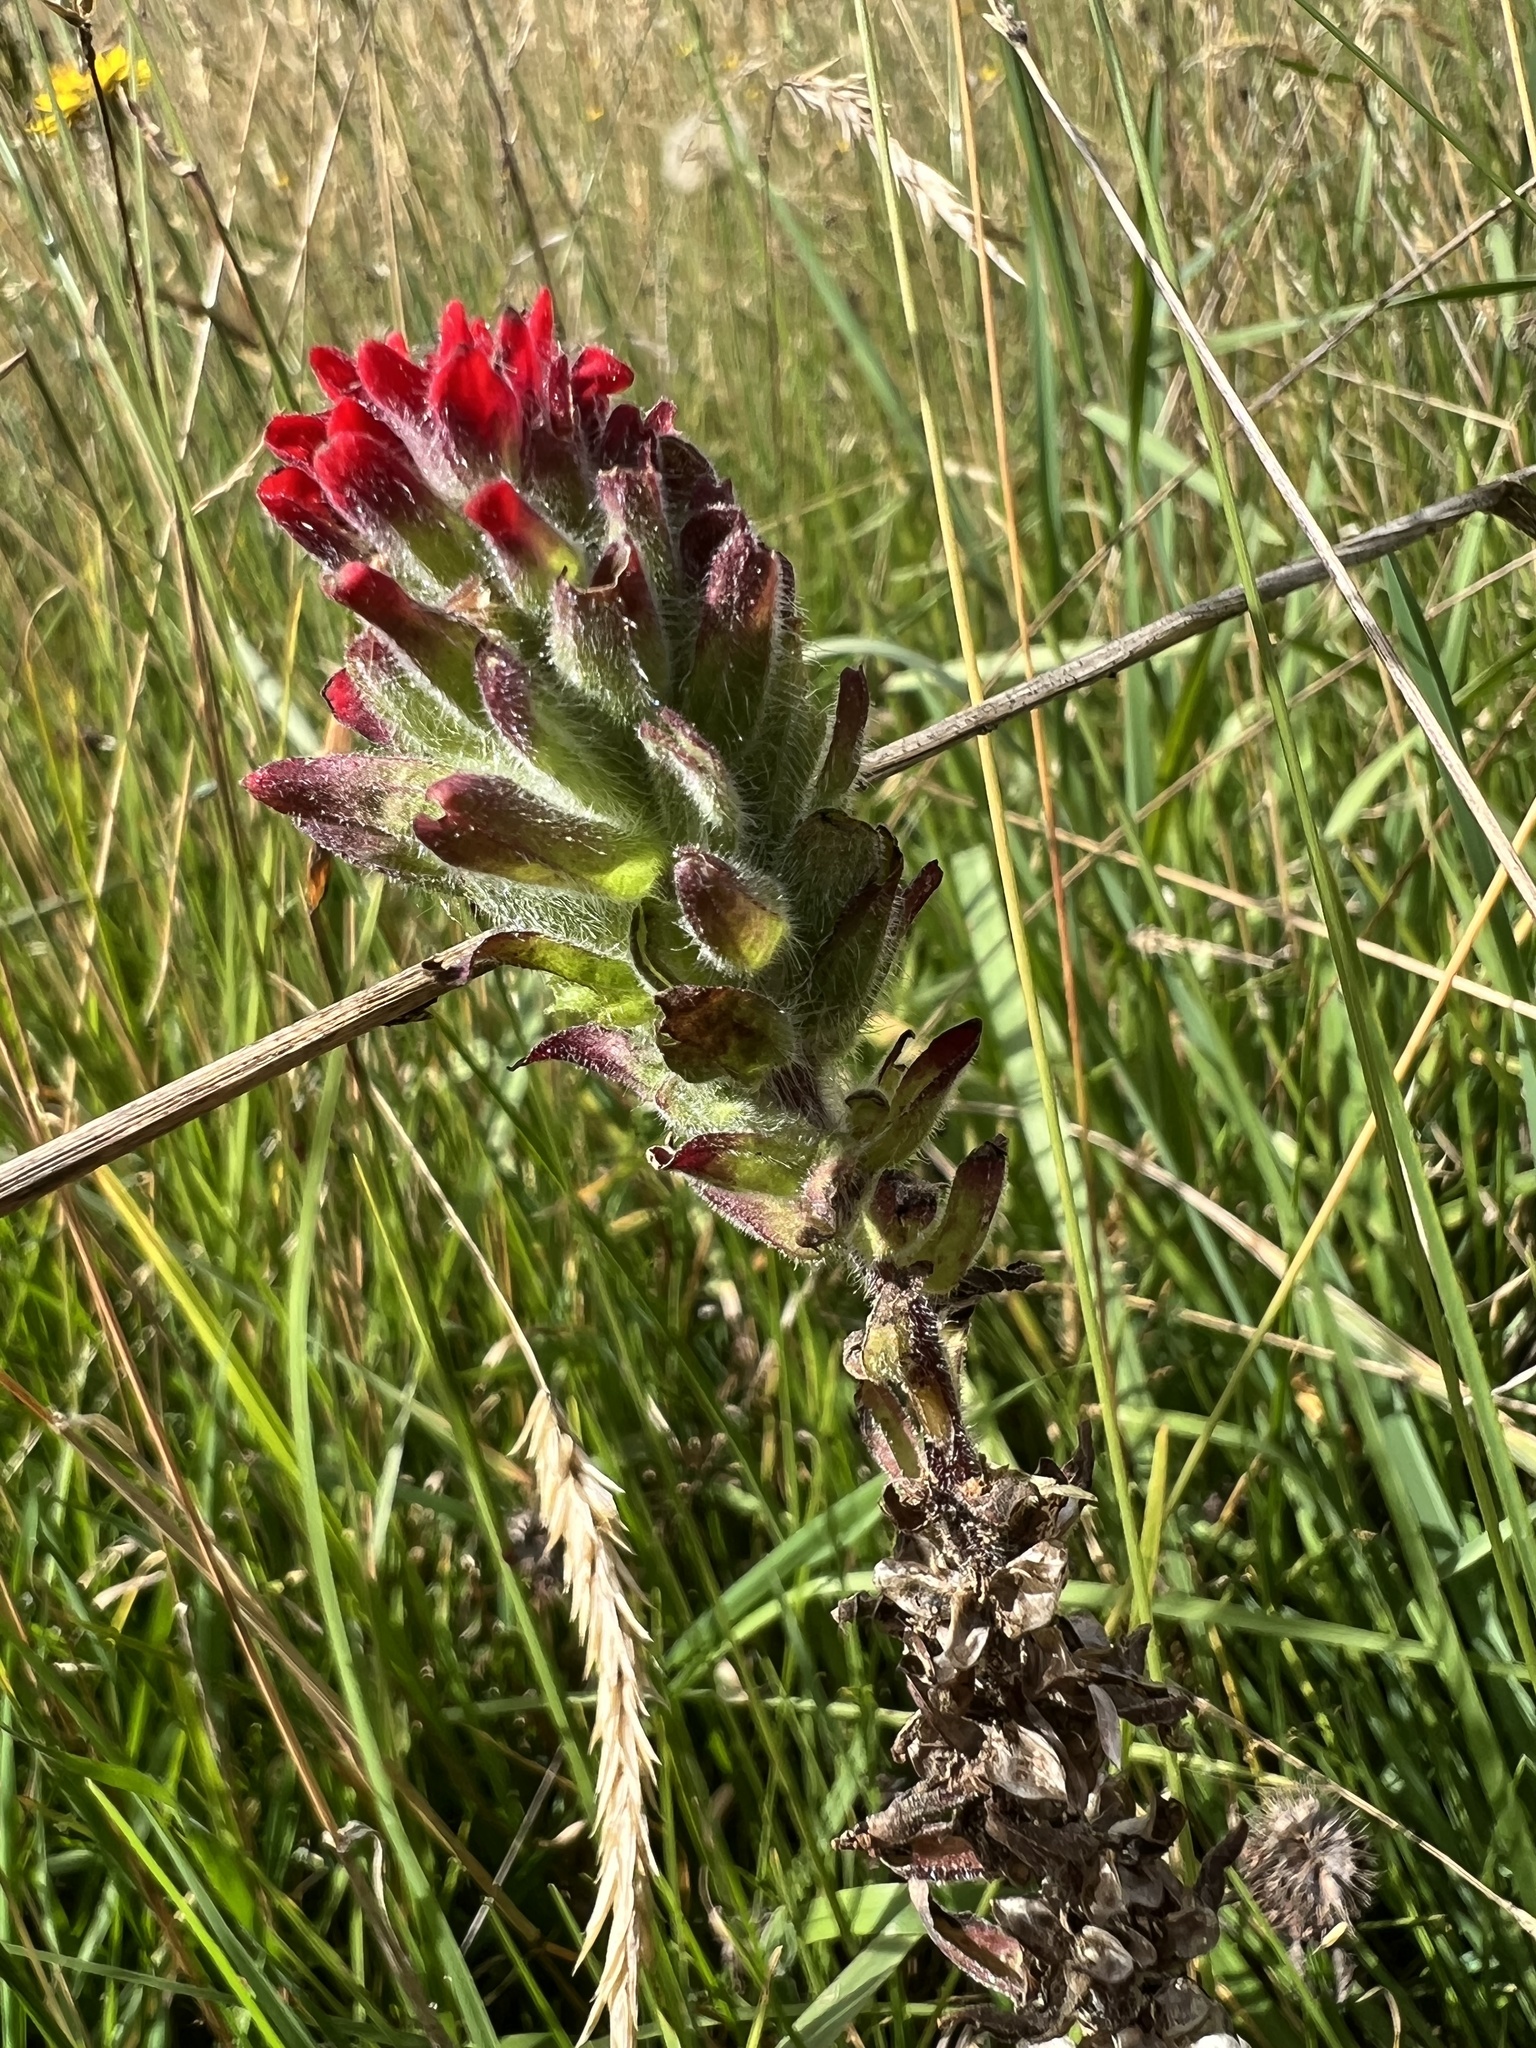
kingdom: Plantae
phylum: Tracheophyta
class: Magnoliopsida
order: Lamiales
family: Orobanchaceae
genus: Castilleja
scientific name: Castilleja arvensis
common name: Indian paintbrush
